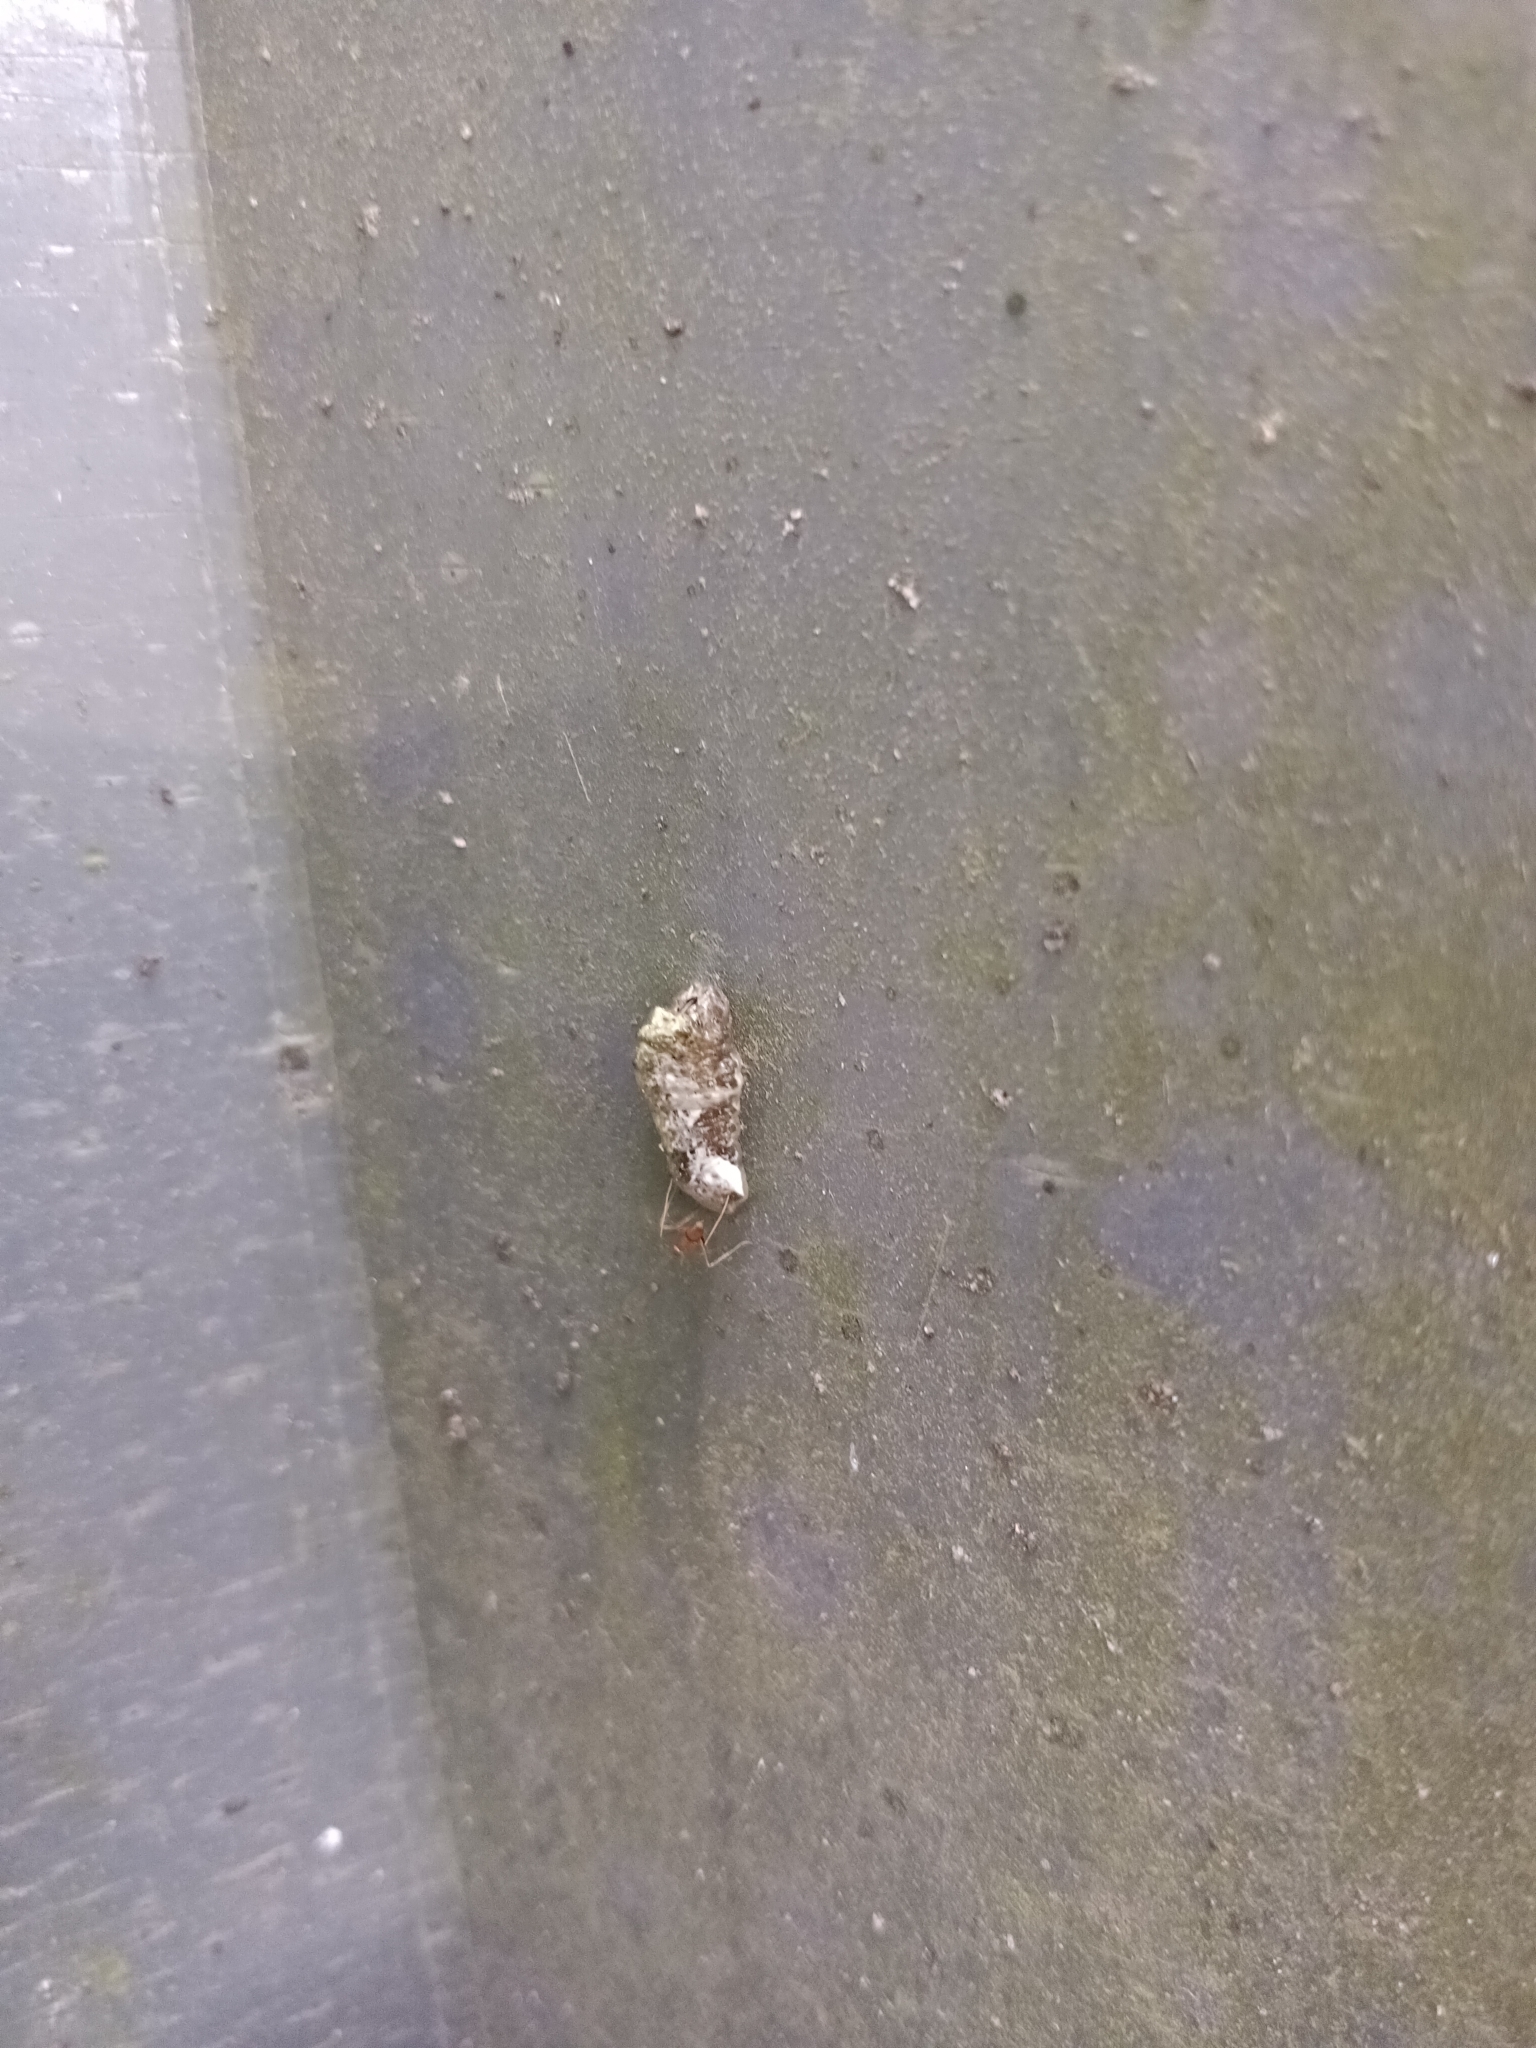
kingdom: Animalia
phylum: Arthropoda
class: Insecta
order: Lepidoptera
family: Lycaenidae
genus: Tajuria
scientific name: Tajuria cippus
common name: Peacock royal
